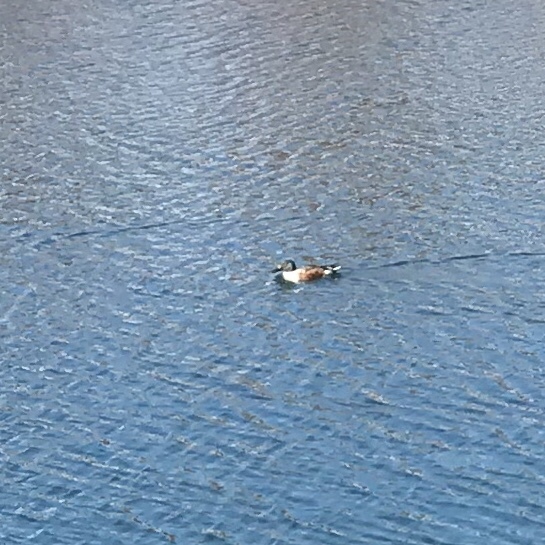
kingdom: Animalia
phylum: Chordata
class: Aves
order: Anseriformes
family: Anatidae
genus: Spatula
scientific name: Spatula clypeata
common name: Northern shoveler
